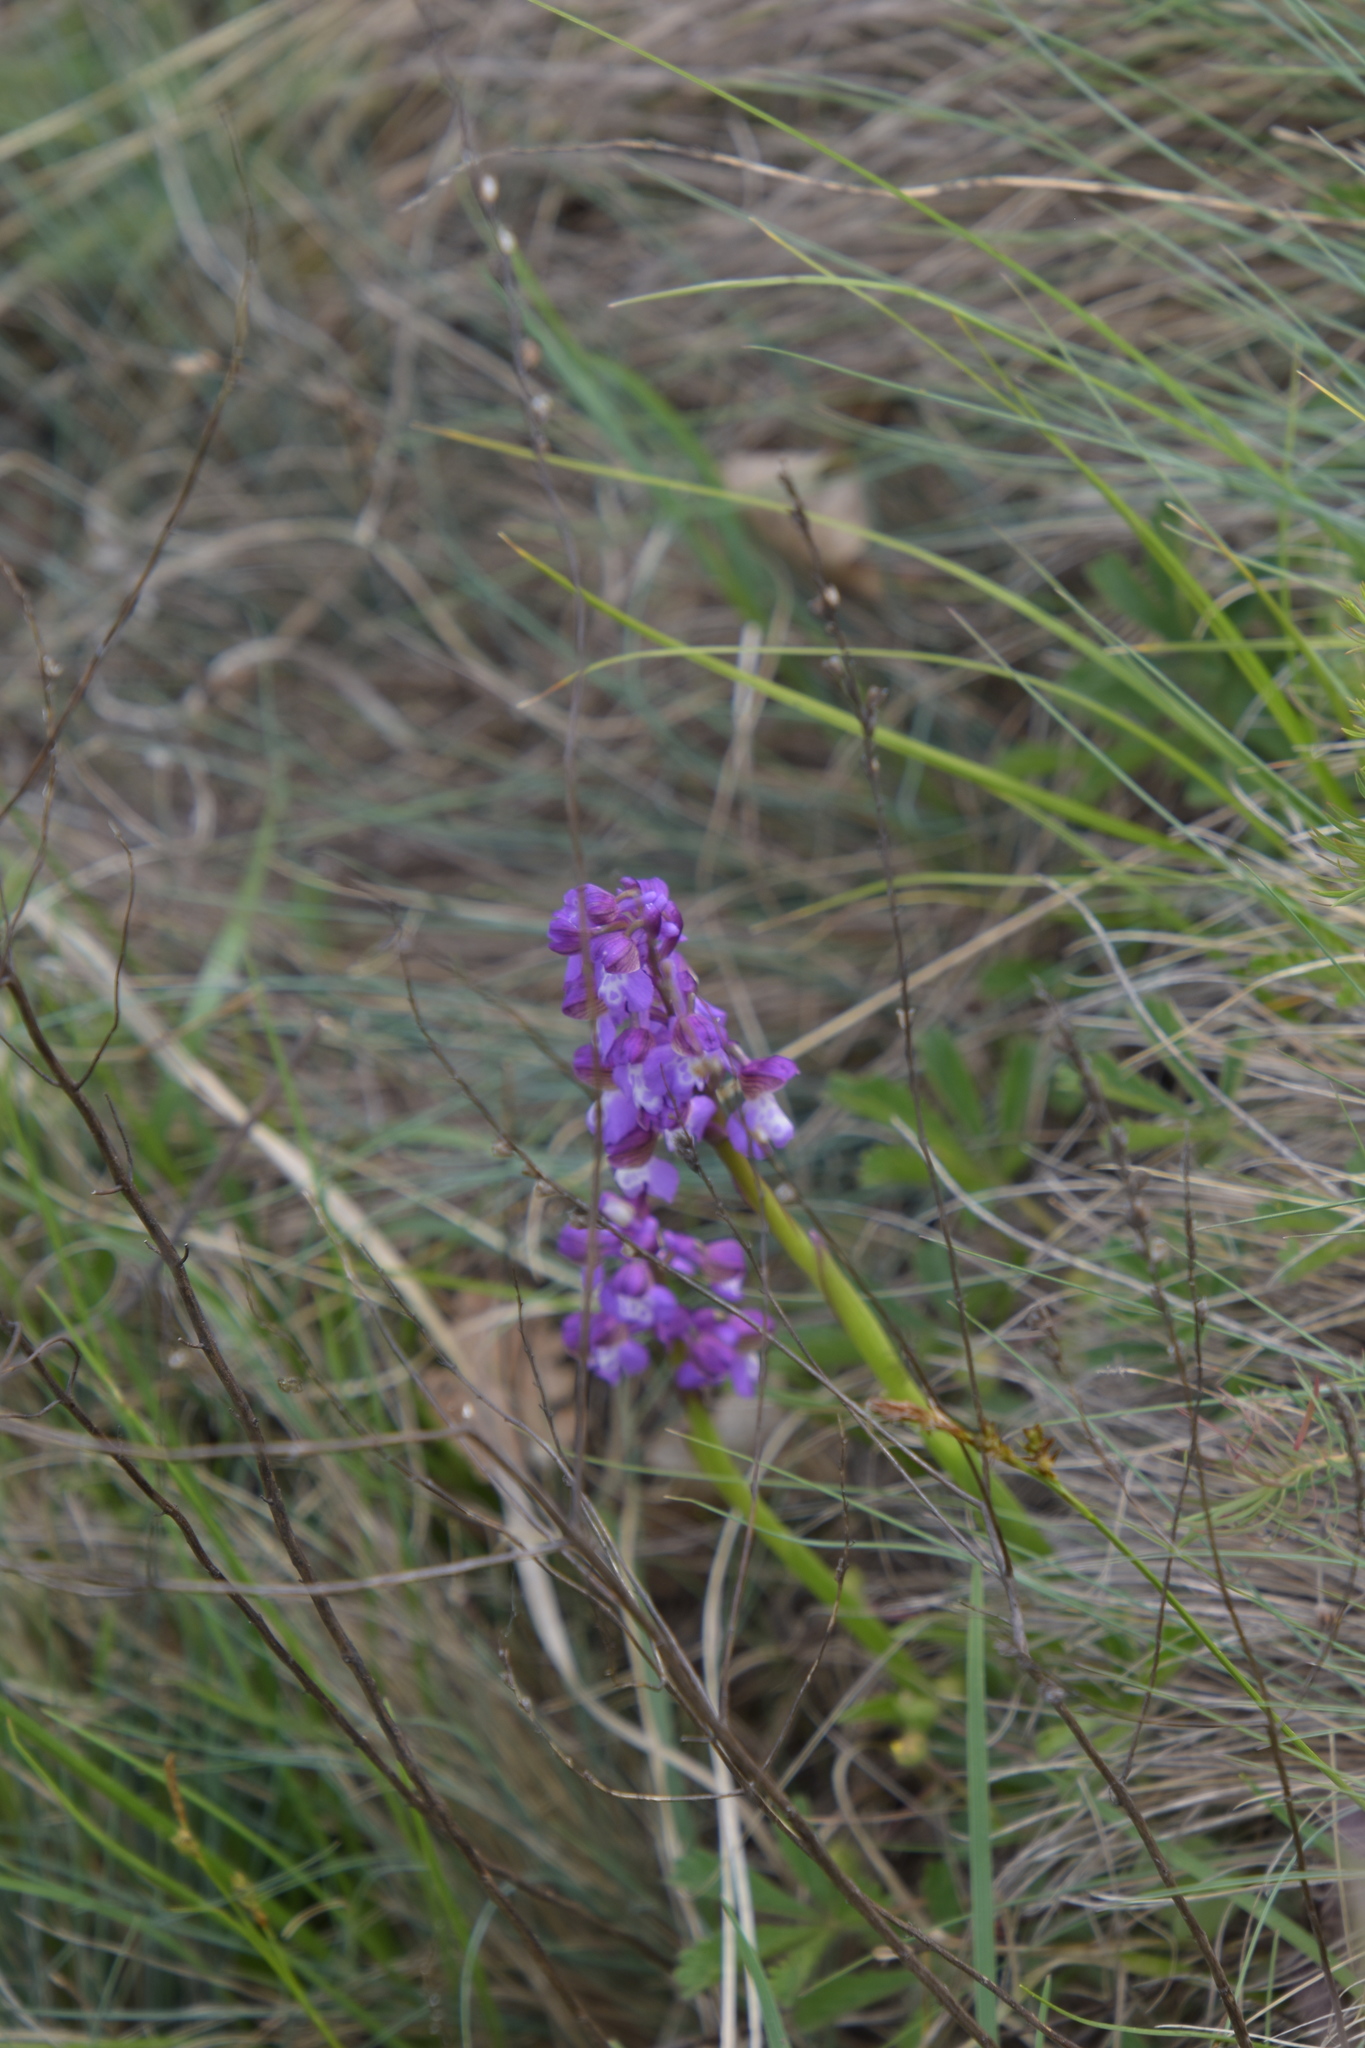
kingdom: Plantae
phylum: Tracheophyta
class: Liliopsida
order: Asparagales
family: Orchidaceae
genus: Anacamptis
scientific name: Anacamptis morio
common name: Green-winged orchid
